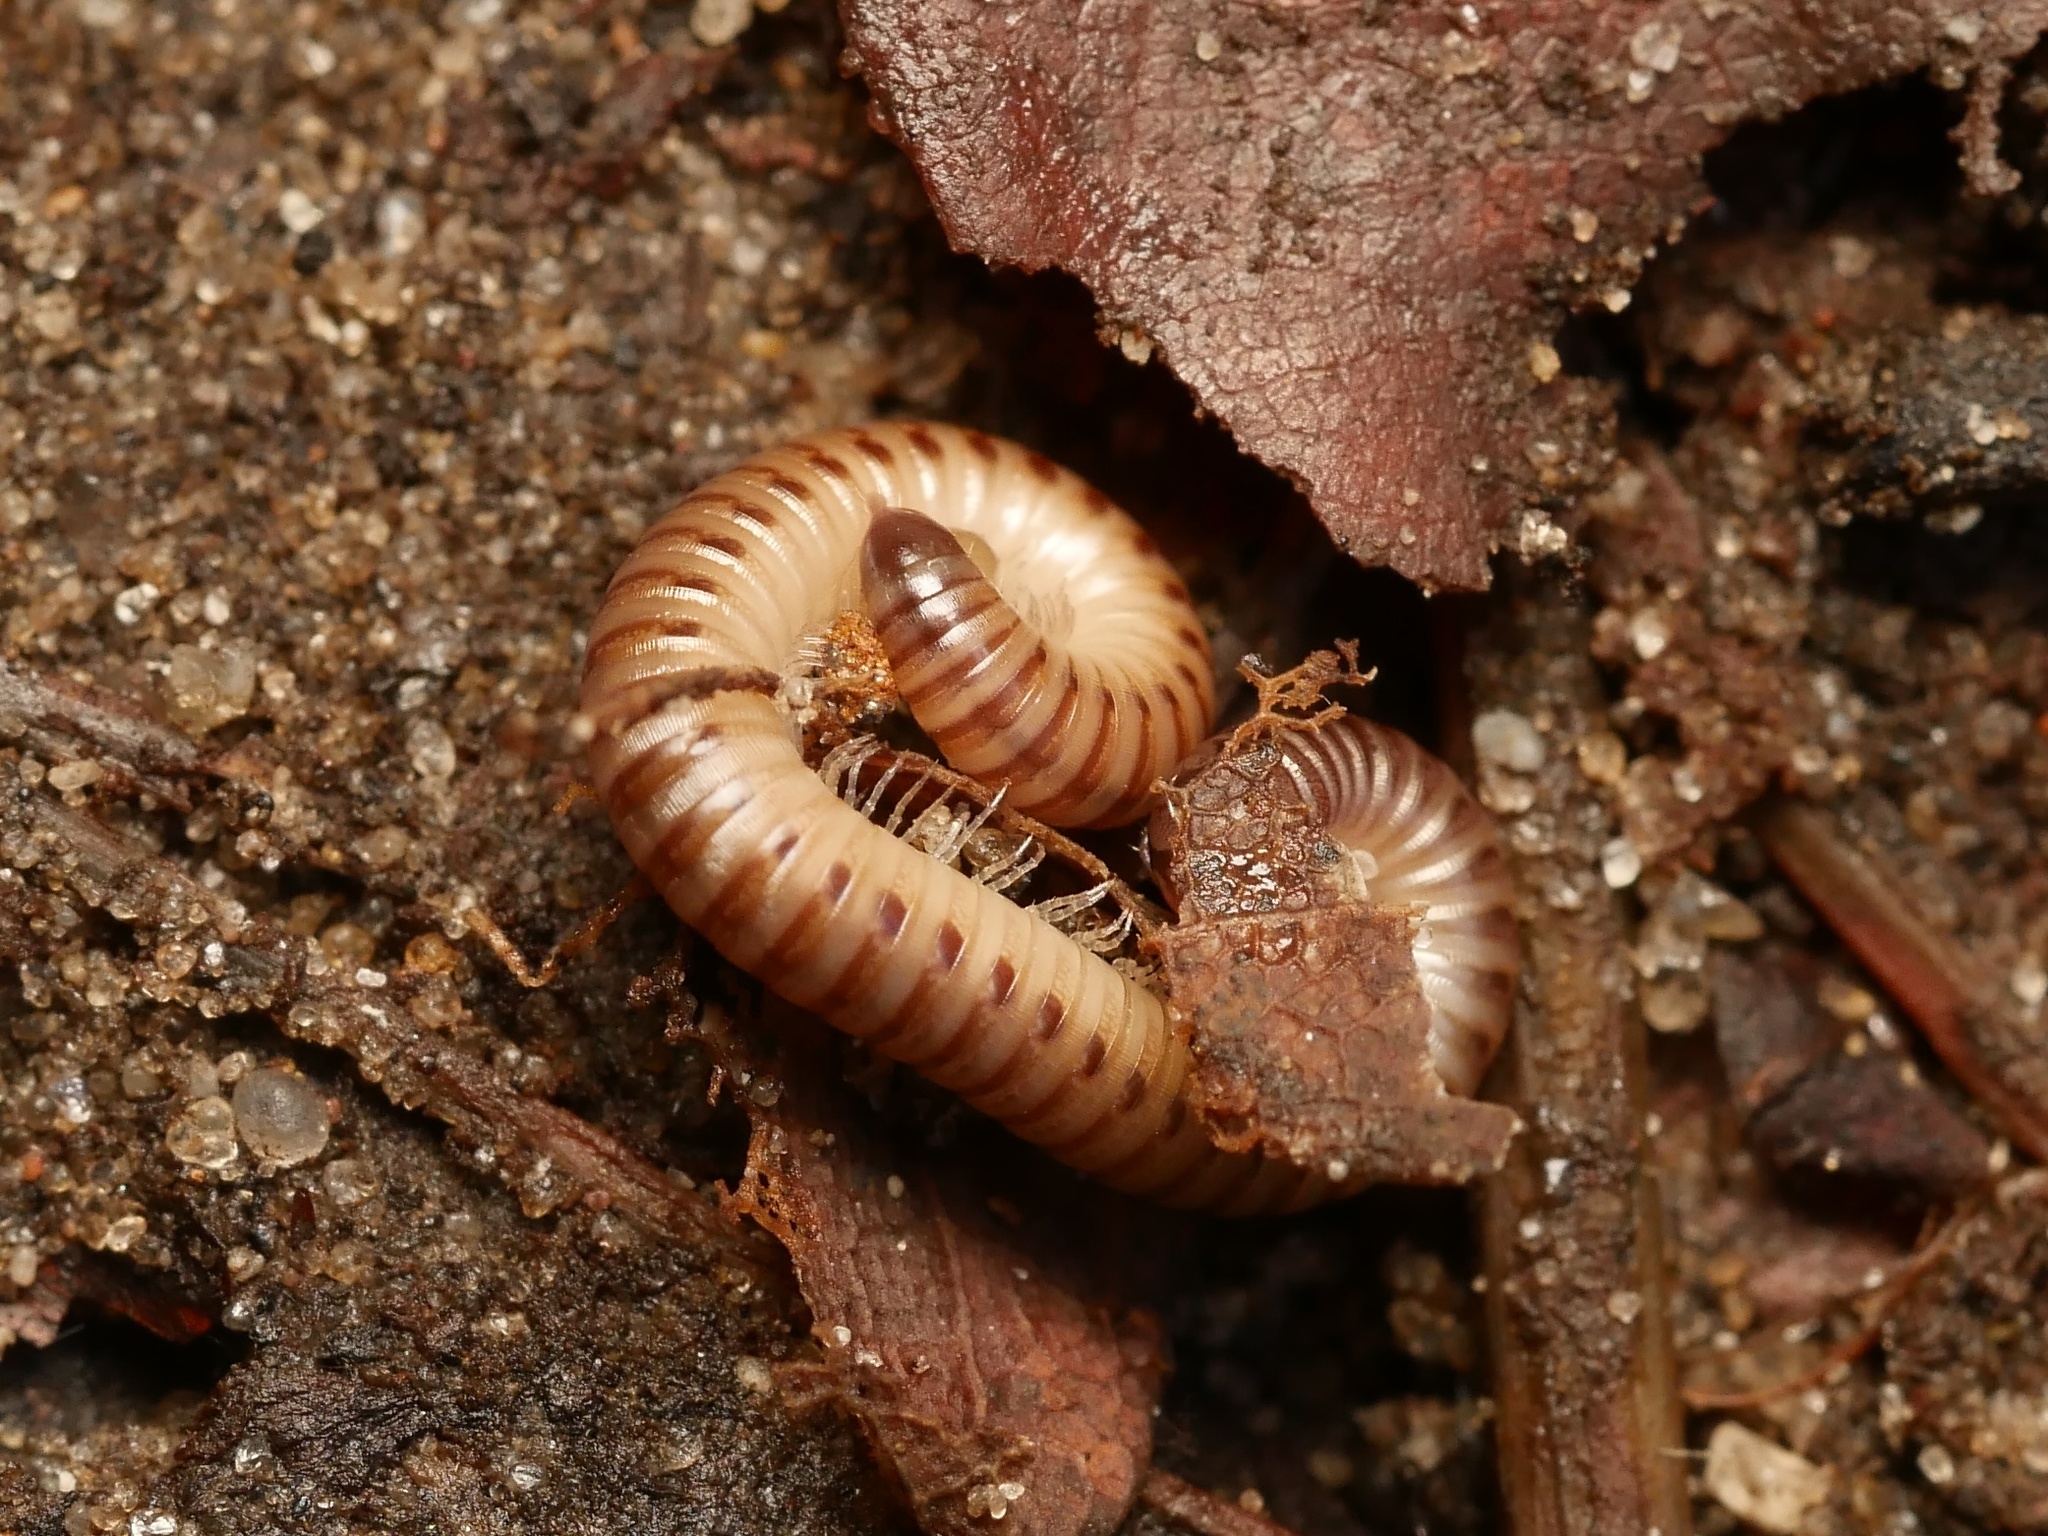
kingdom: Animalia
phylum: Arthropoda
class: Diplopoda
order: Julida
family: Julidae
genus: Cylindroiulus
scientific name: Cylindroiulus punctatus
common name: Blunt-tailed millipede
